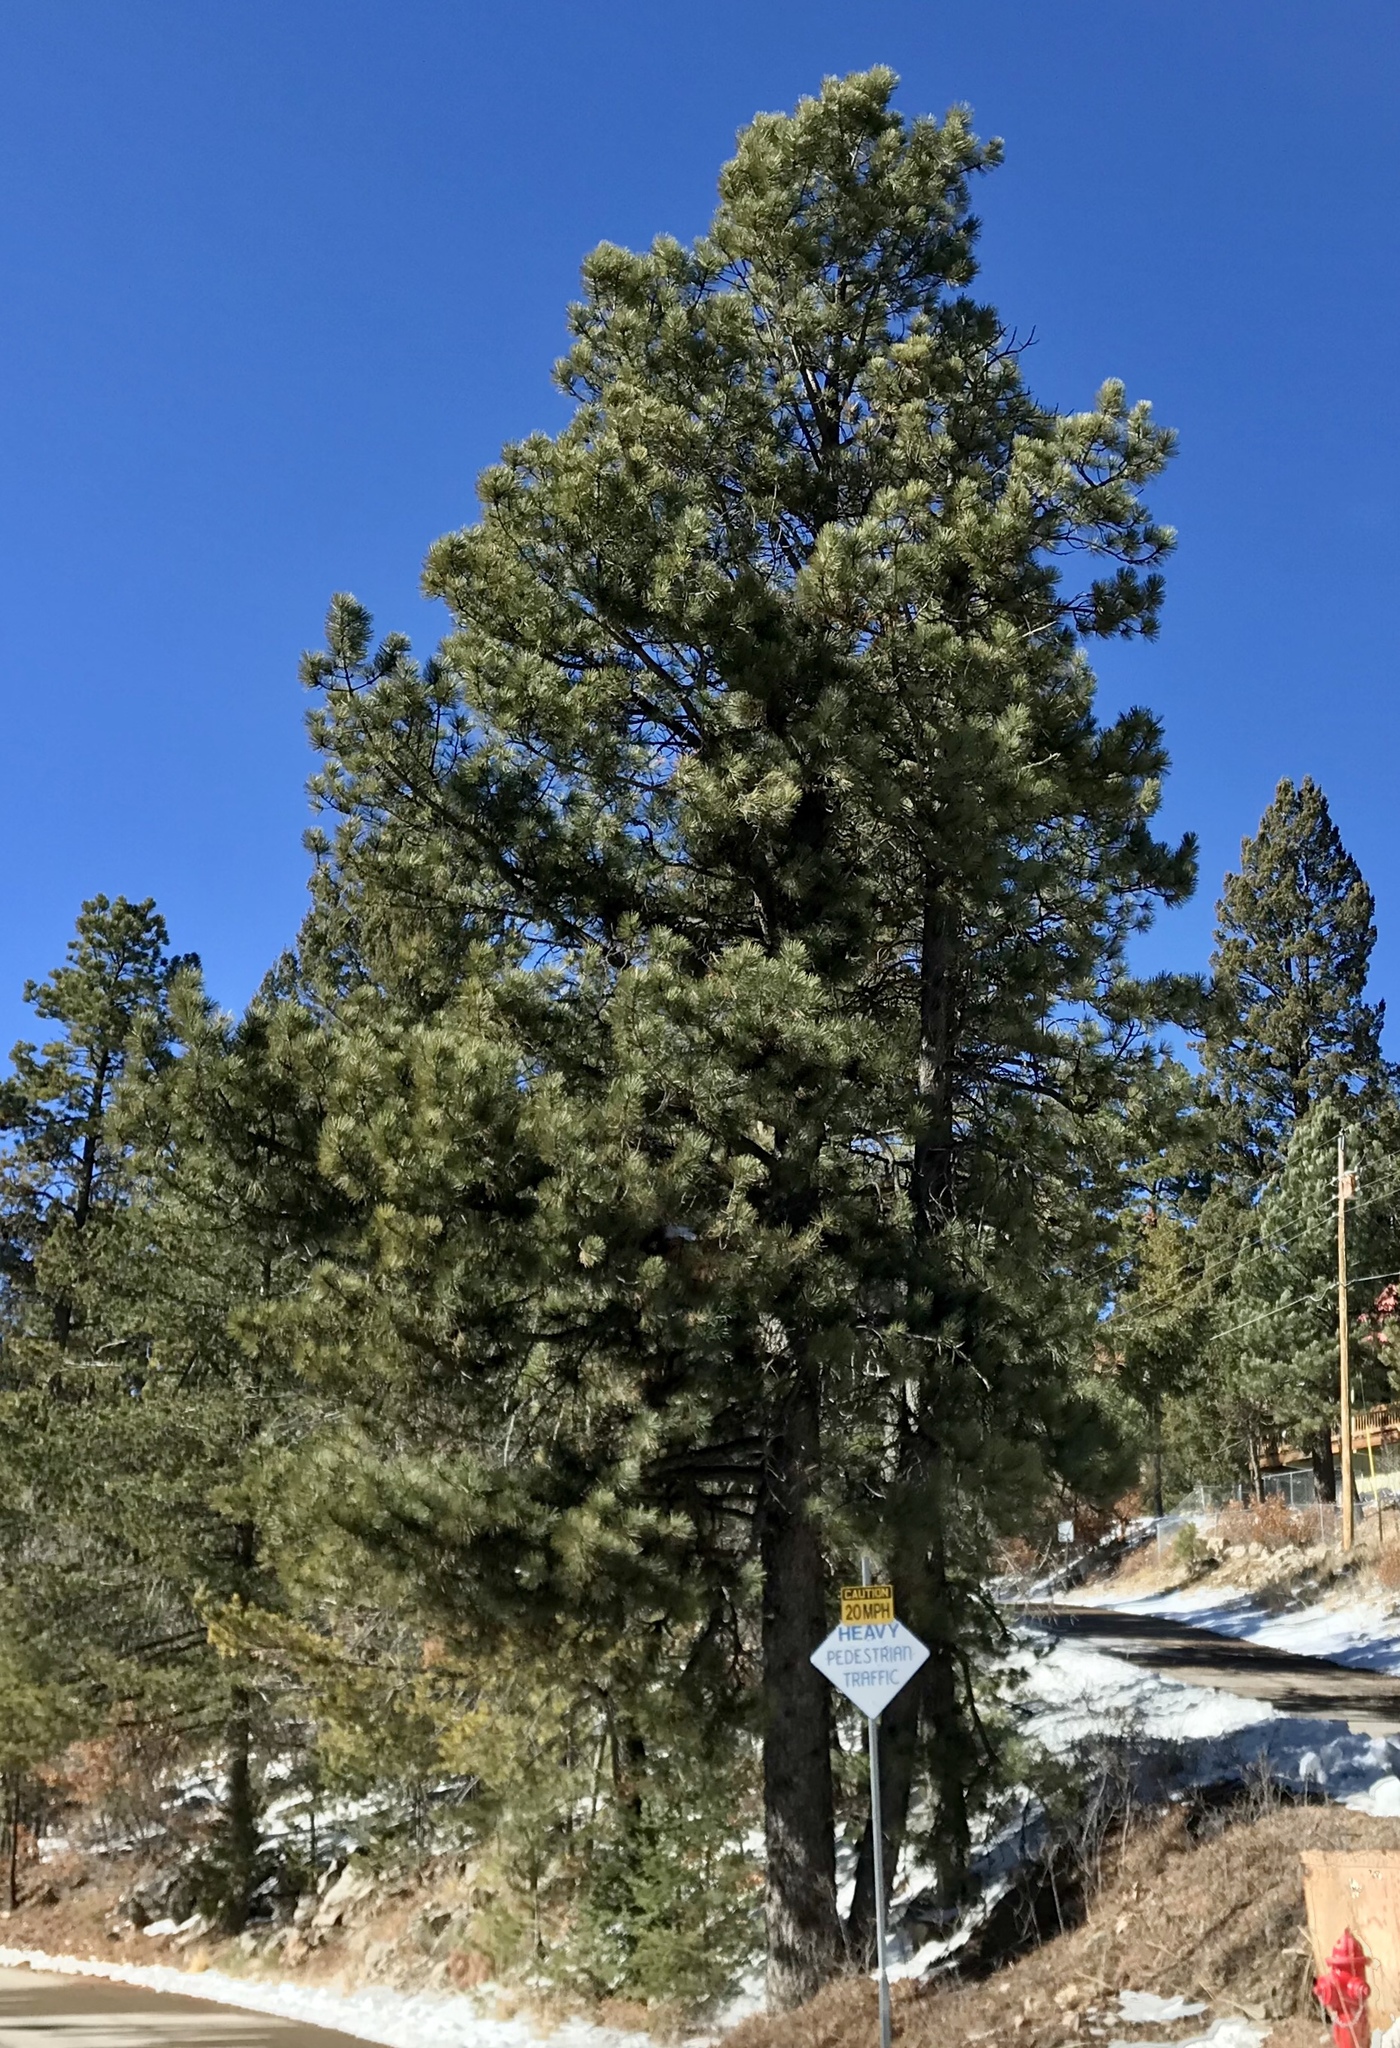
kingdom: Plantae
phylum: Tracheophyta
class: Pinopsida
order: Pinales
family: Pinaceae
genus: Pinus
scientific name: Pinus ponderosa
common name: Western yellow-pine
